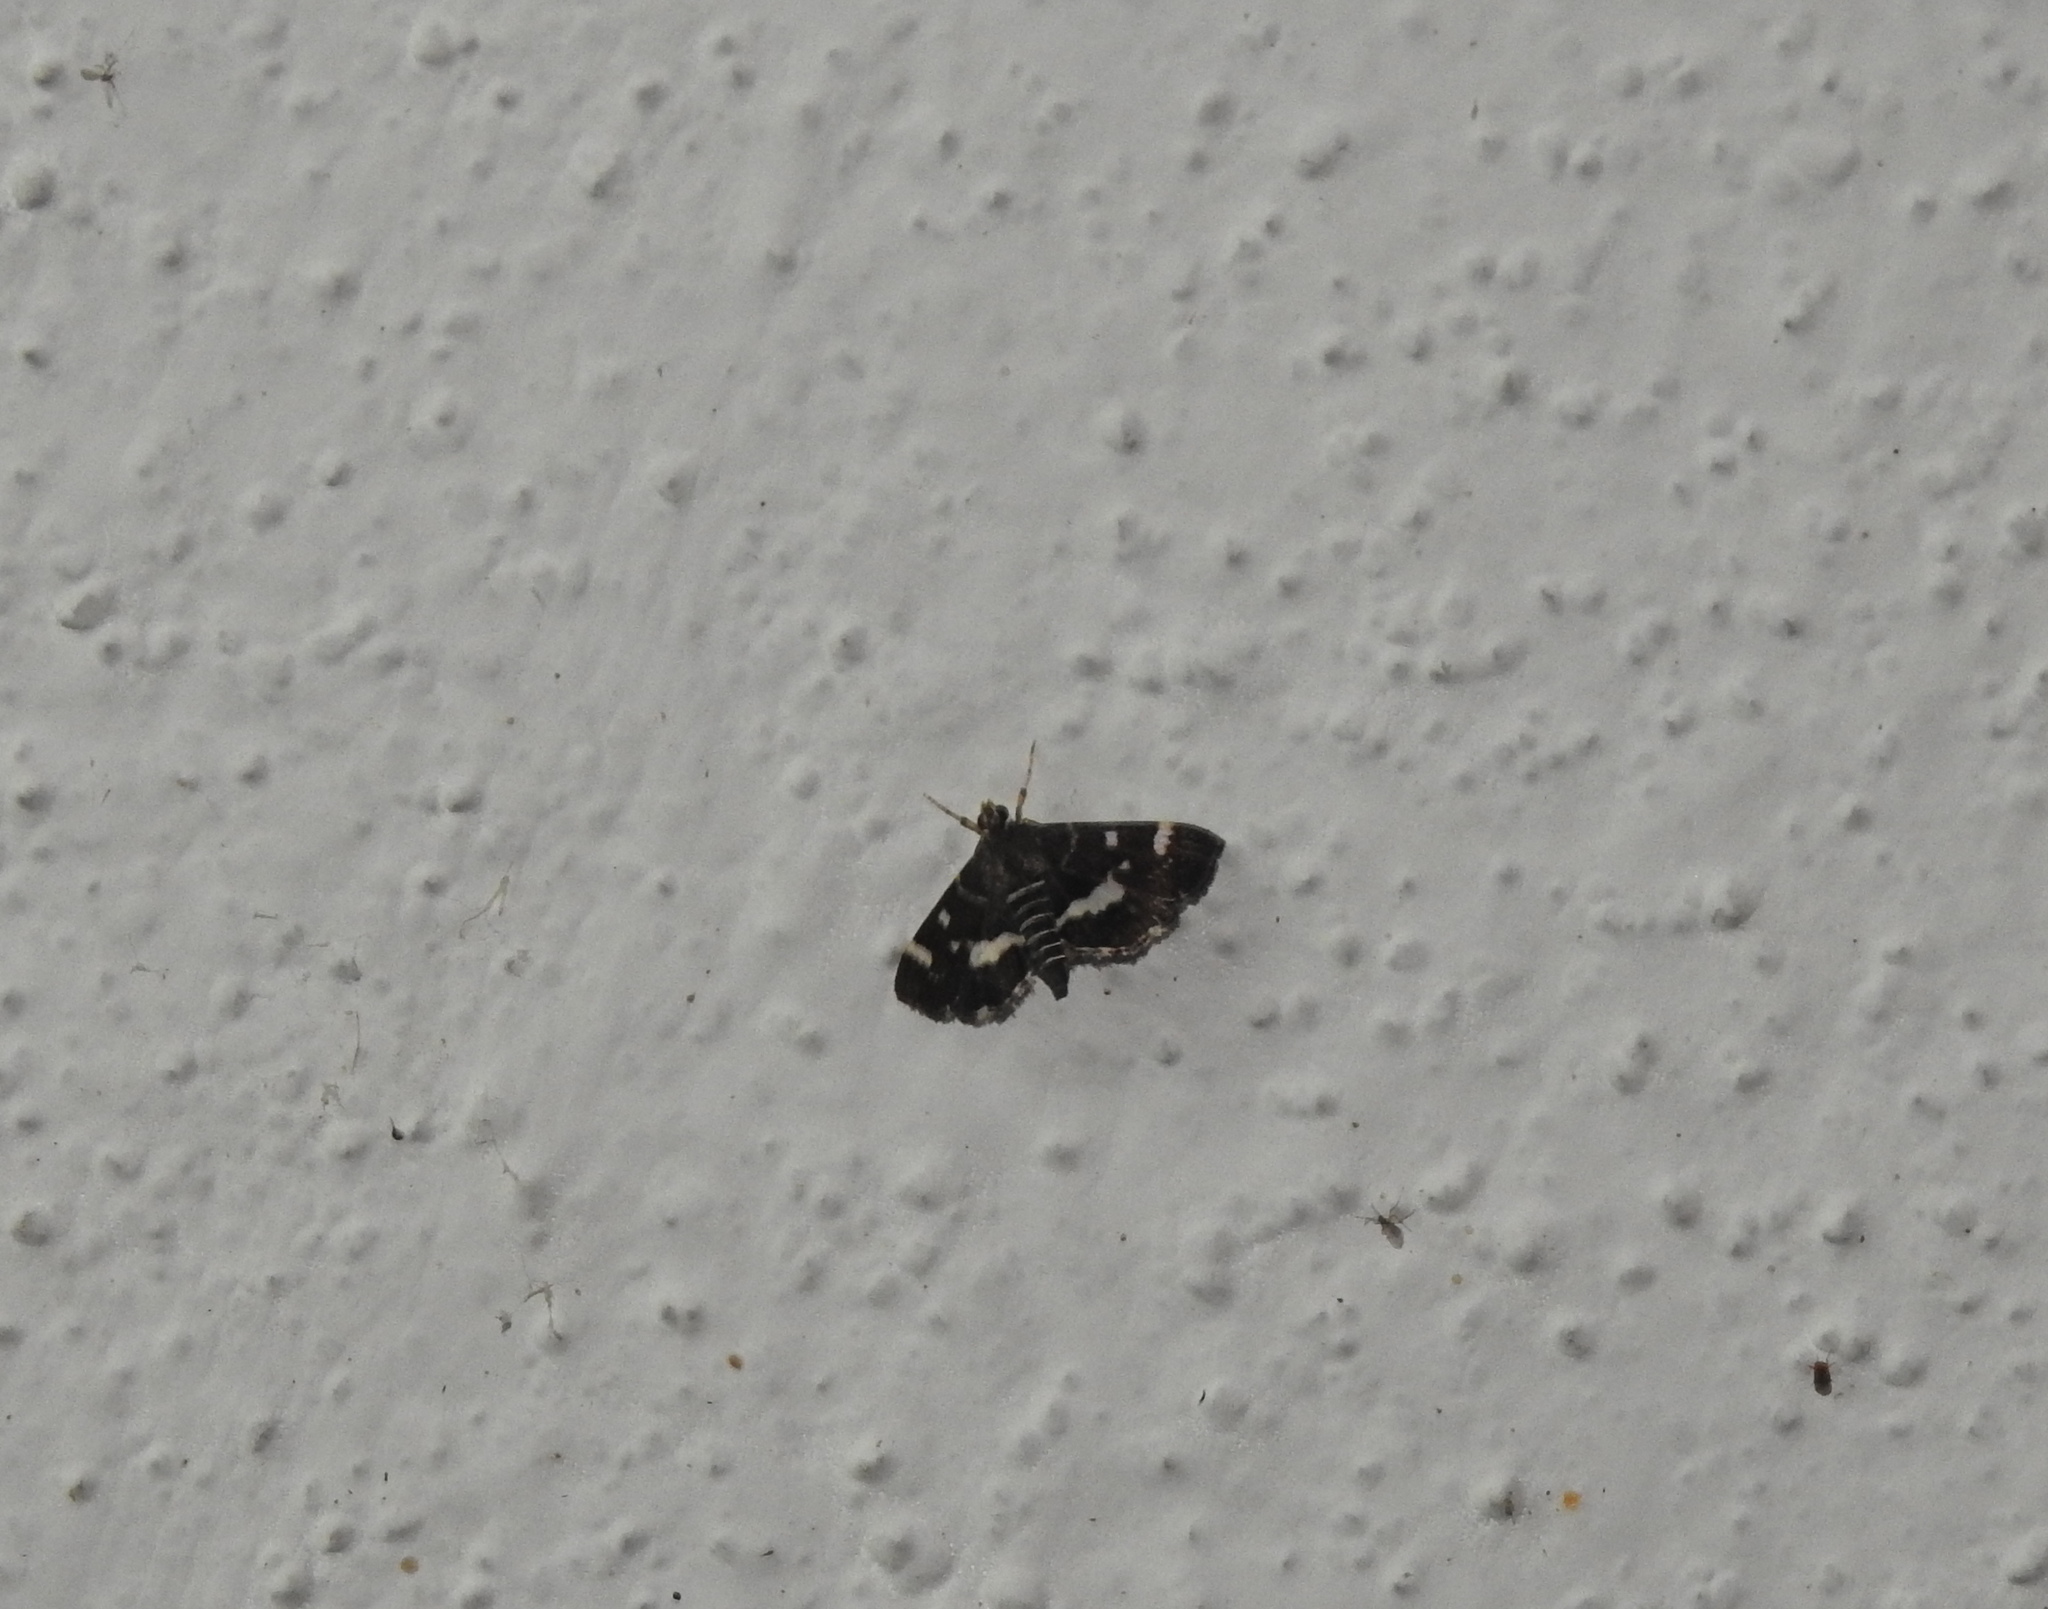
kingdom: Animalia
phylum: Arthropoda
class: Insecta
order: Lepidoptera
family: Crambidae
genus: Hymenia
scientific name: Hymenia perspectalis
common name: Spotted beet webworm
